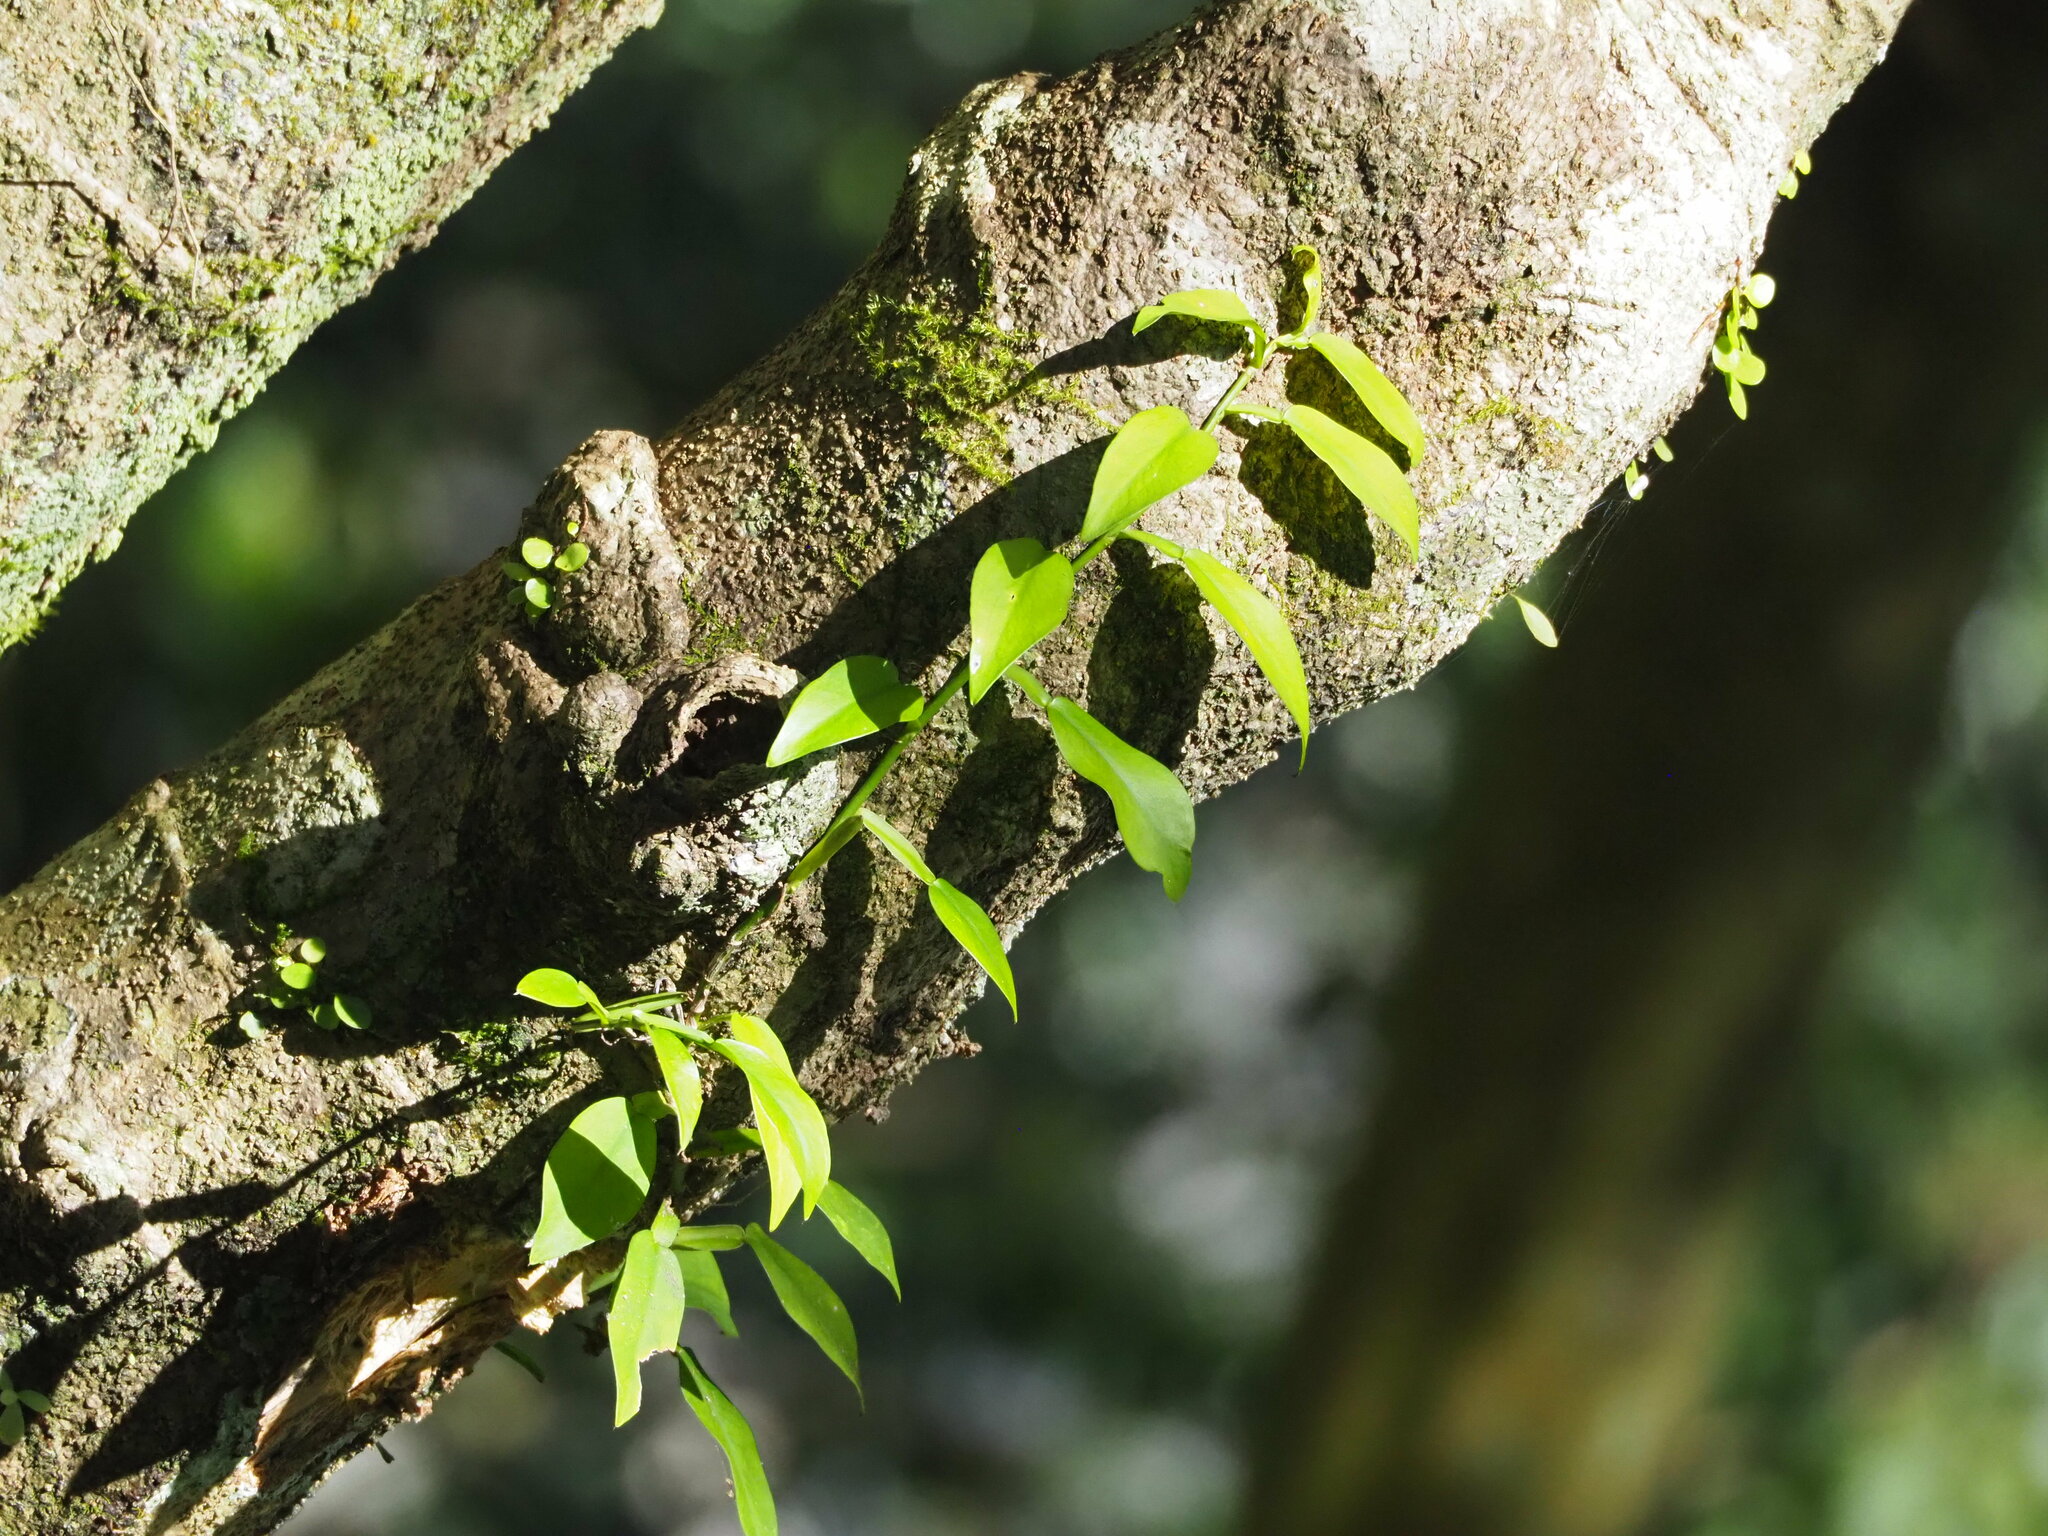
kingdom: Plantae
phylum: Tracheophyta
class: Liliopsida
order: Alismatales
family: Araceae
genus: Pothos
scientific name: Pothos chinensis
